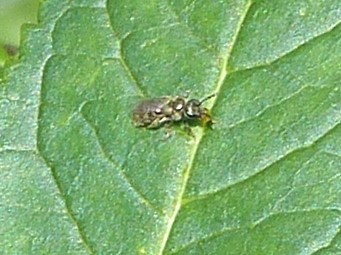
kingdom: Animalia
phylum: Arthropoda
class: Insecta
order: Hymenoptera
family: Halictidae
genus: Dialictus
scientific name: Dialictus
